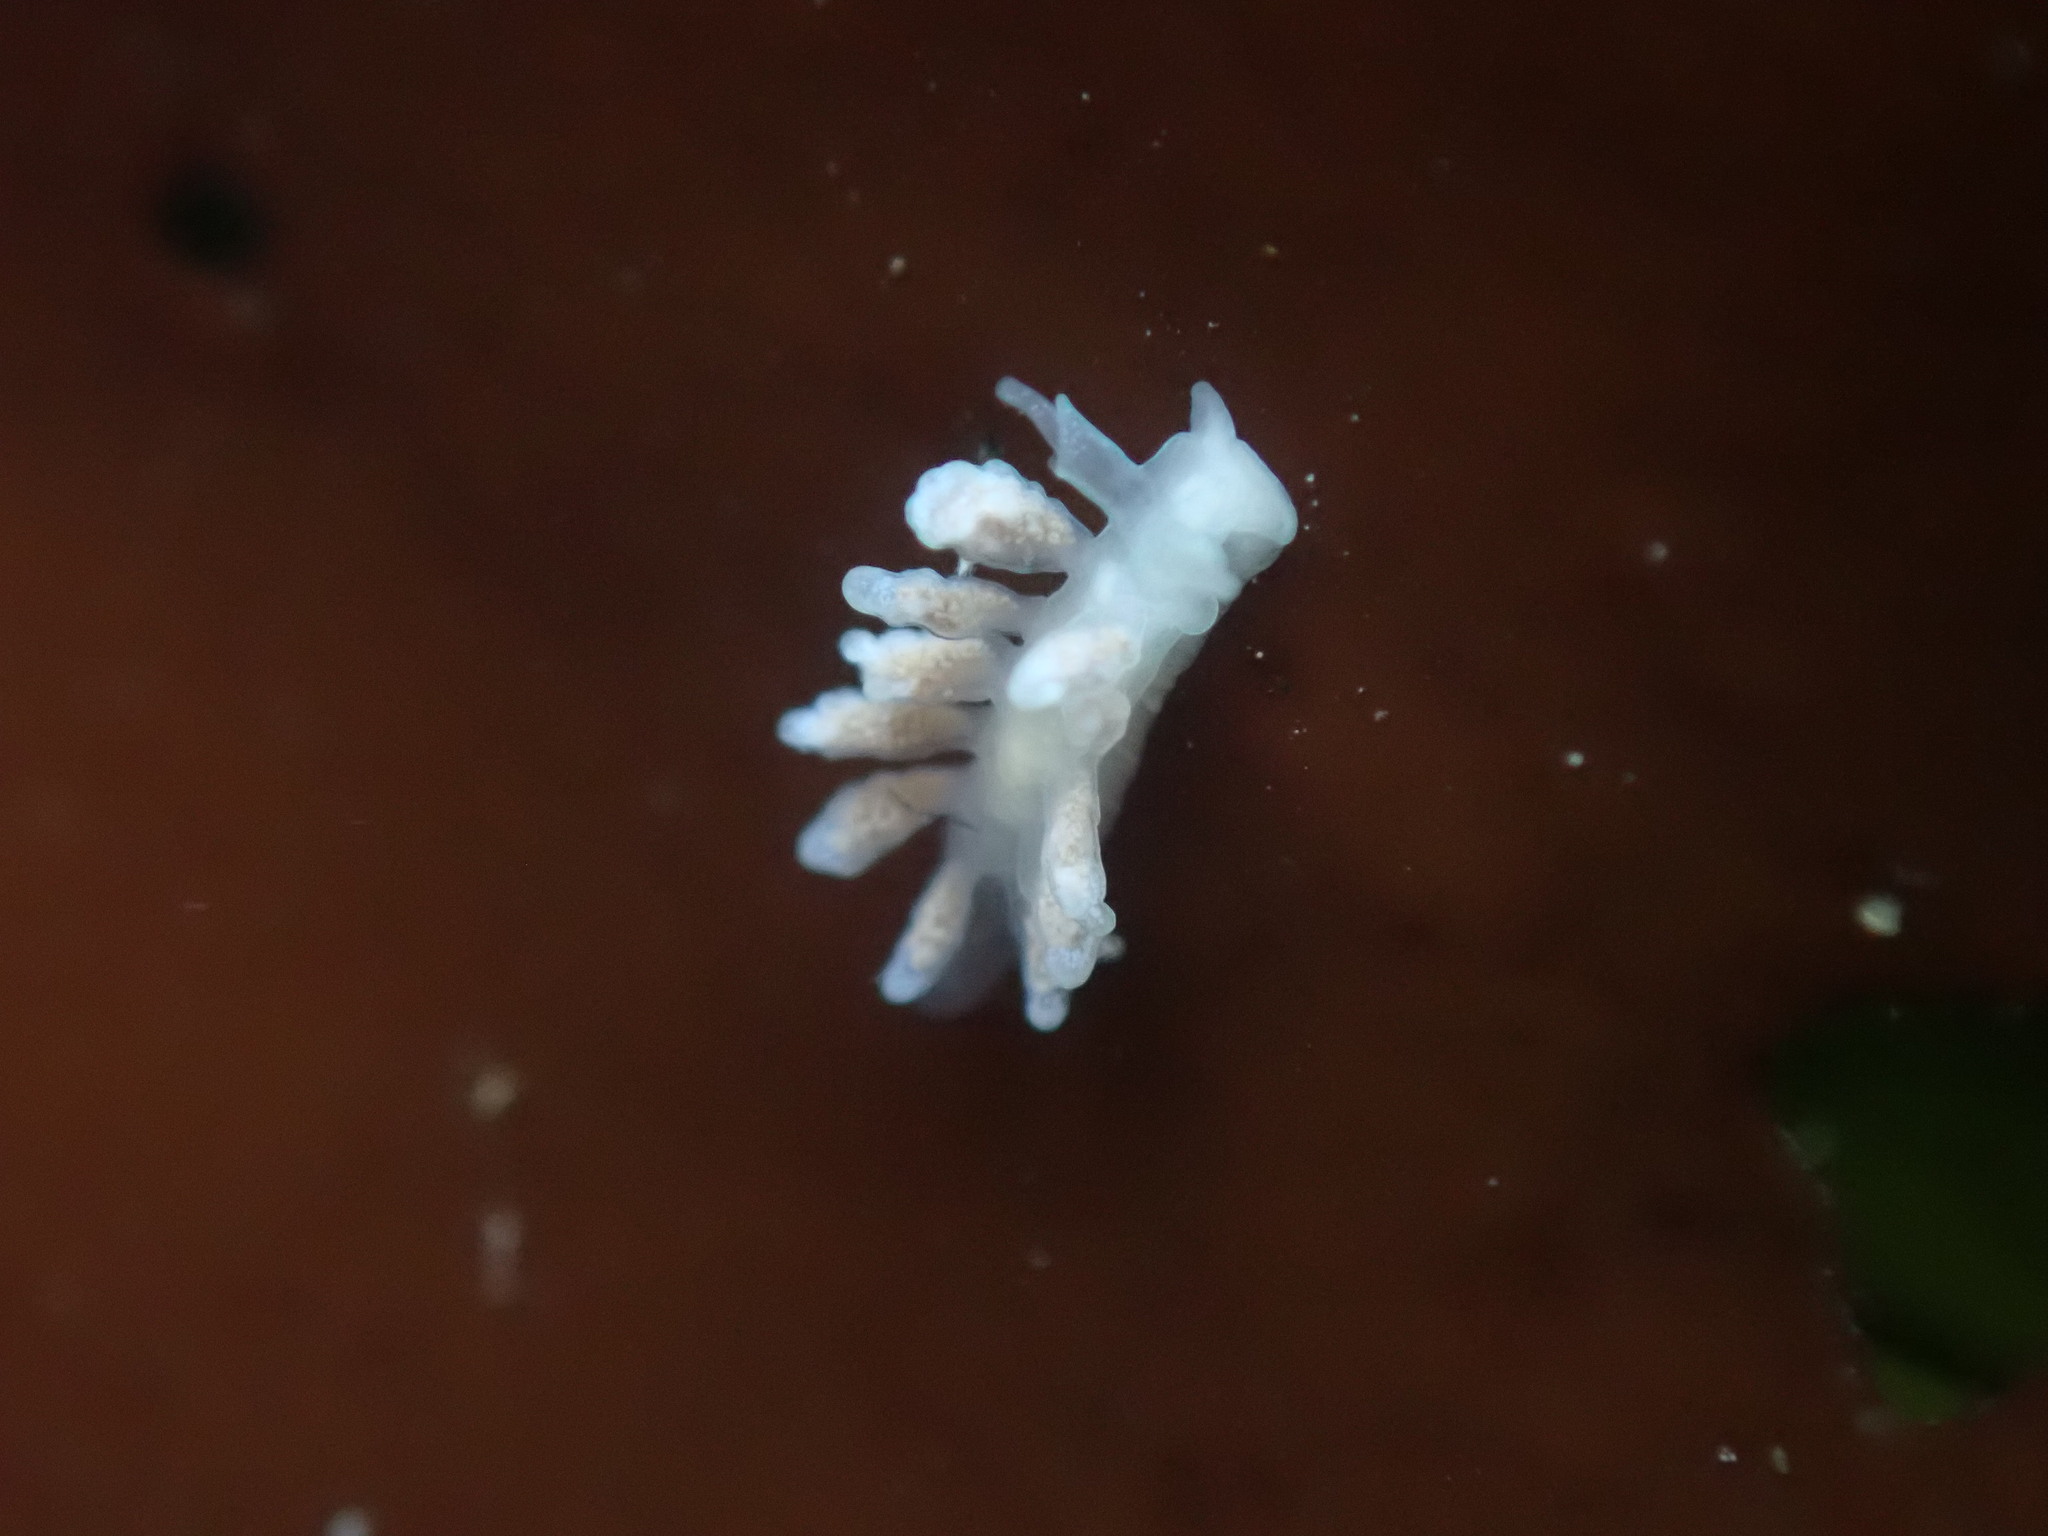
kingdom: Animalia
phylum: Mollusca
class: Gastropoda
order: Nudibranchia
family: Dotidae
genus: Doto
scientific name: Doto amyra
